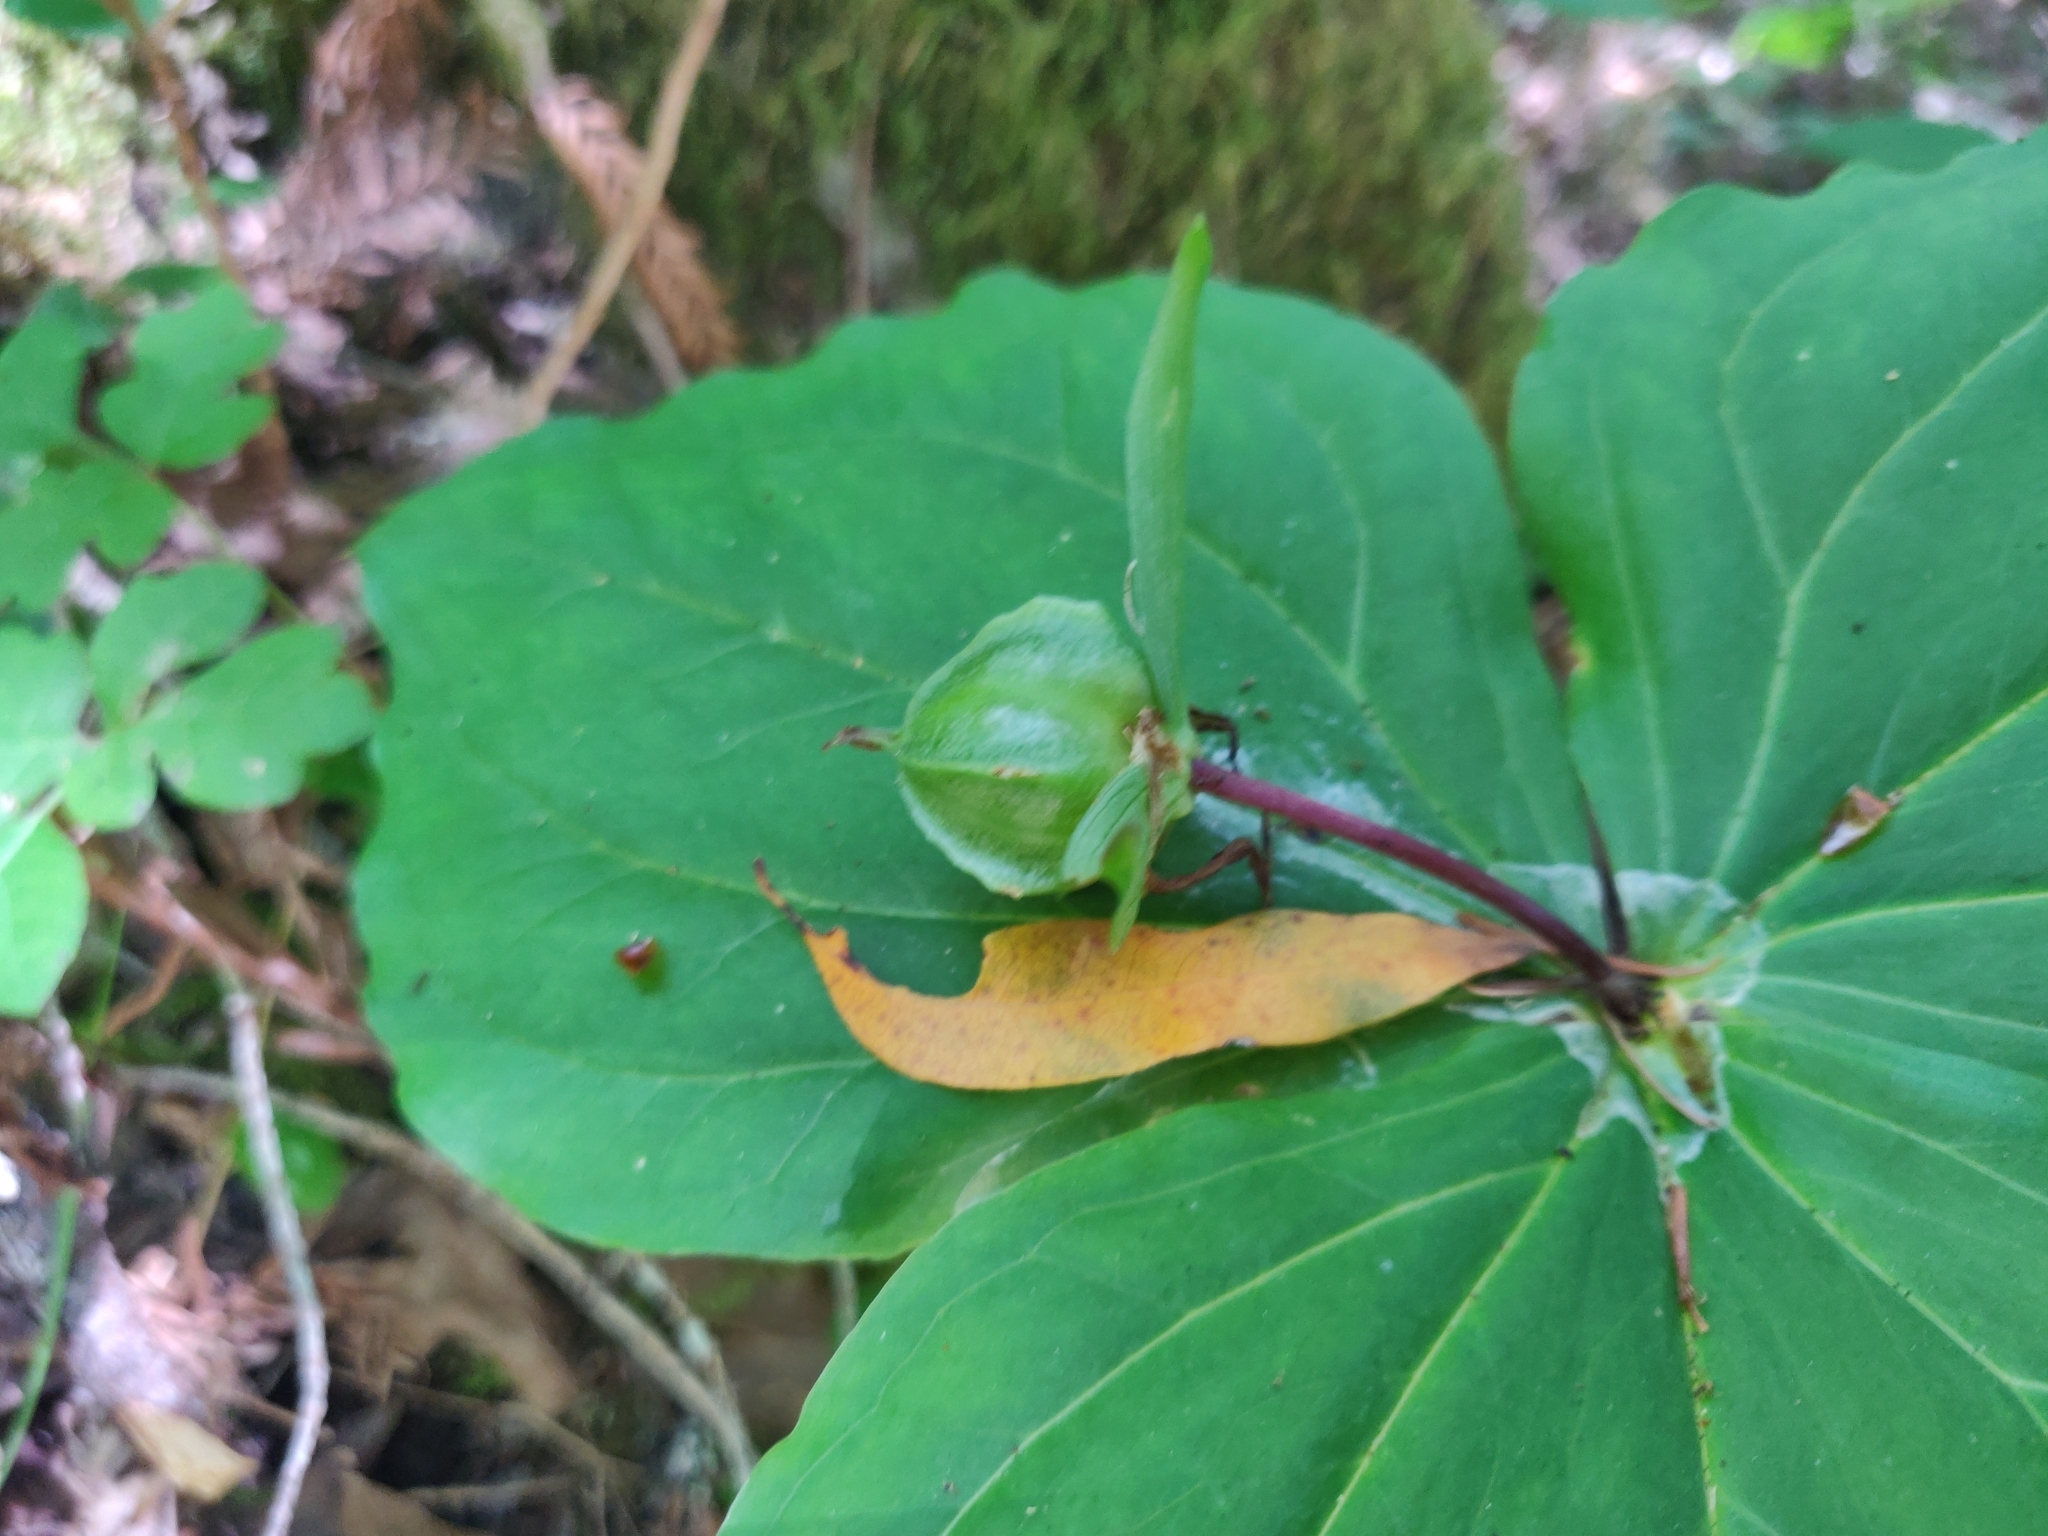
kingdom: Plantae
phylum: Tracheophyta
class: Liliopsida
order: Liliales
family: Melanthiaceae
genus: Trillium
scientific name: Trillium ovatum
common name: Pacific trillium
